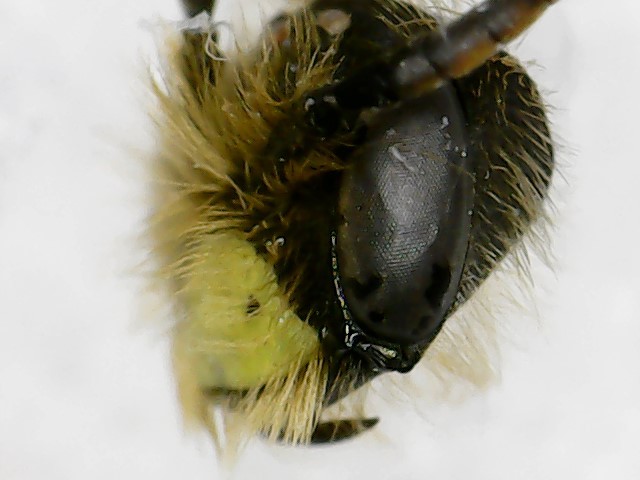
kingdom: Animalia
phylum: Arthropoda
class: Insecta
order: Hymenoptera
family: Andrenidae
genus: Andrena
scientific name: Andrena miserabilis
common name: Miserable mining bee
